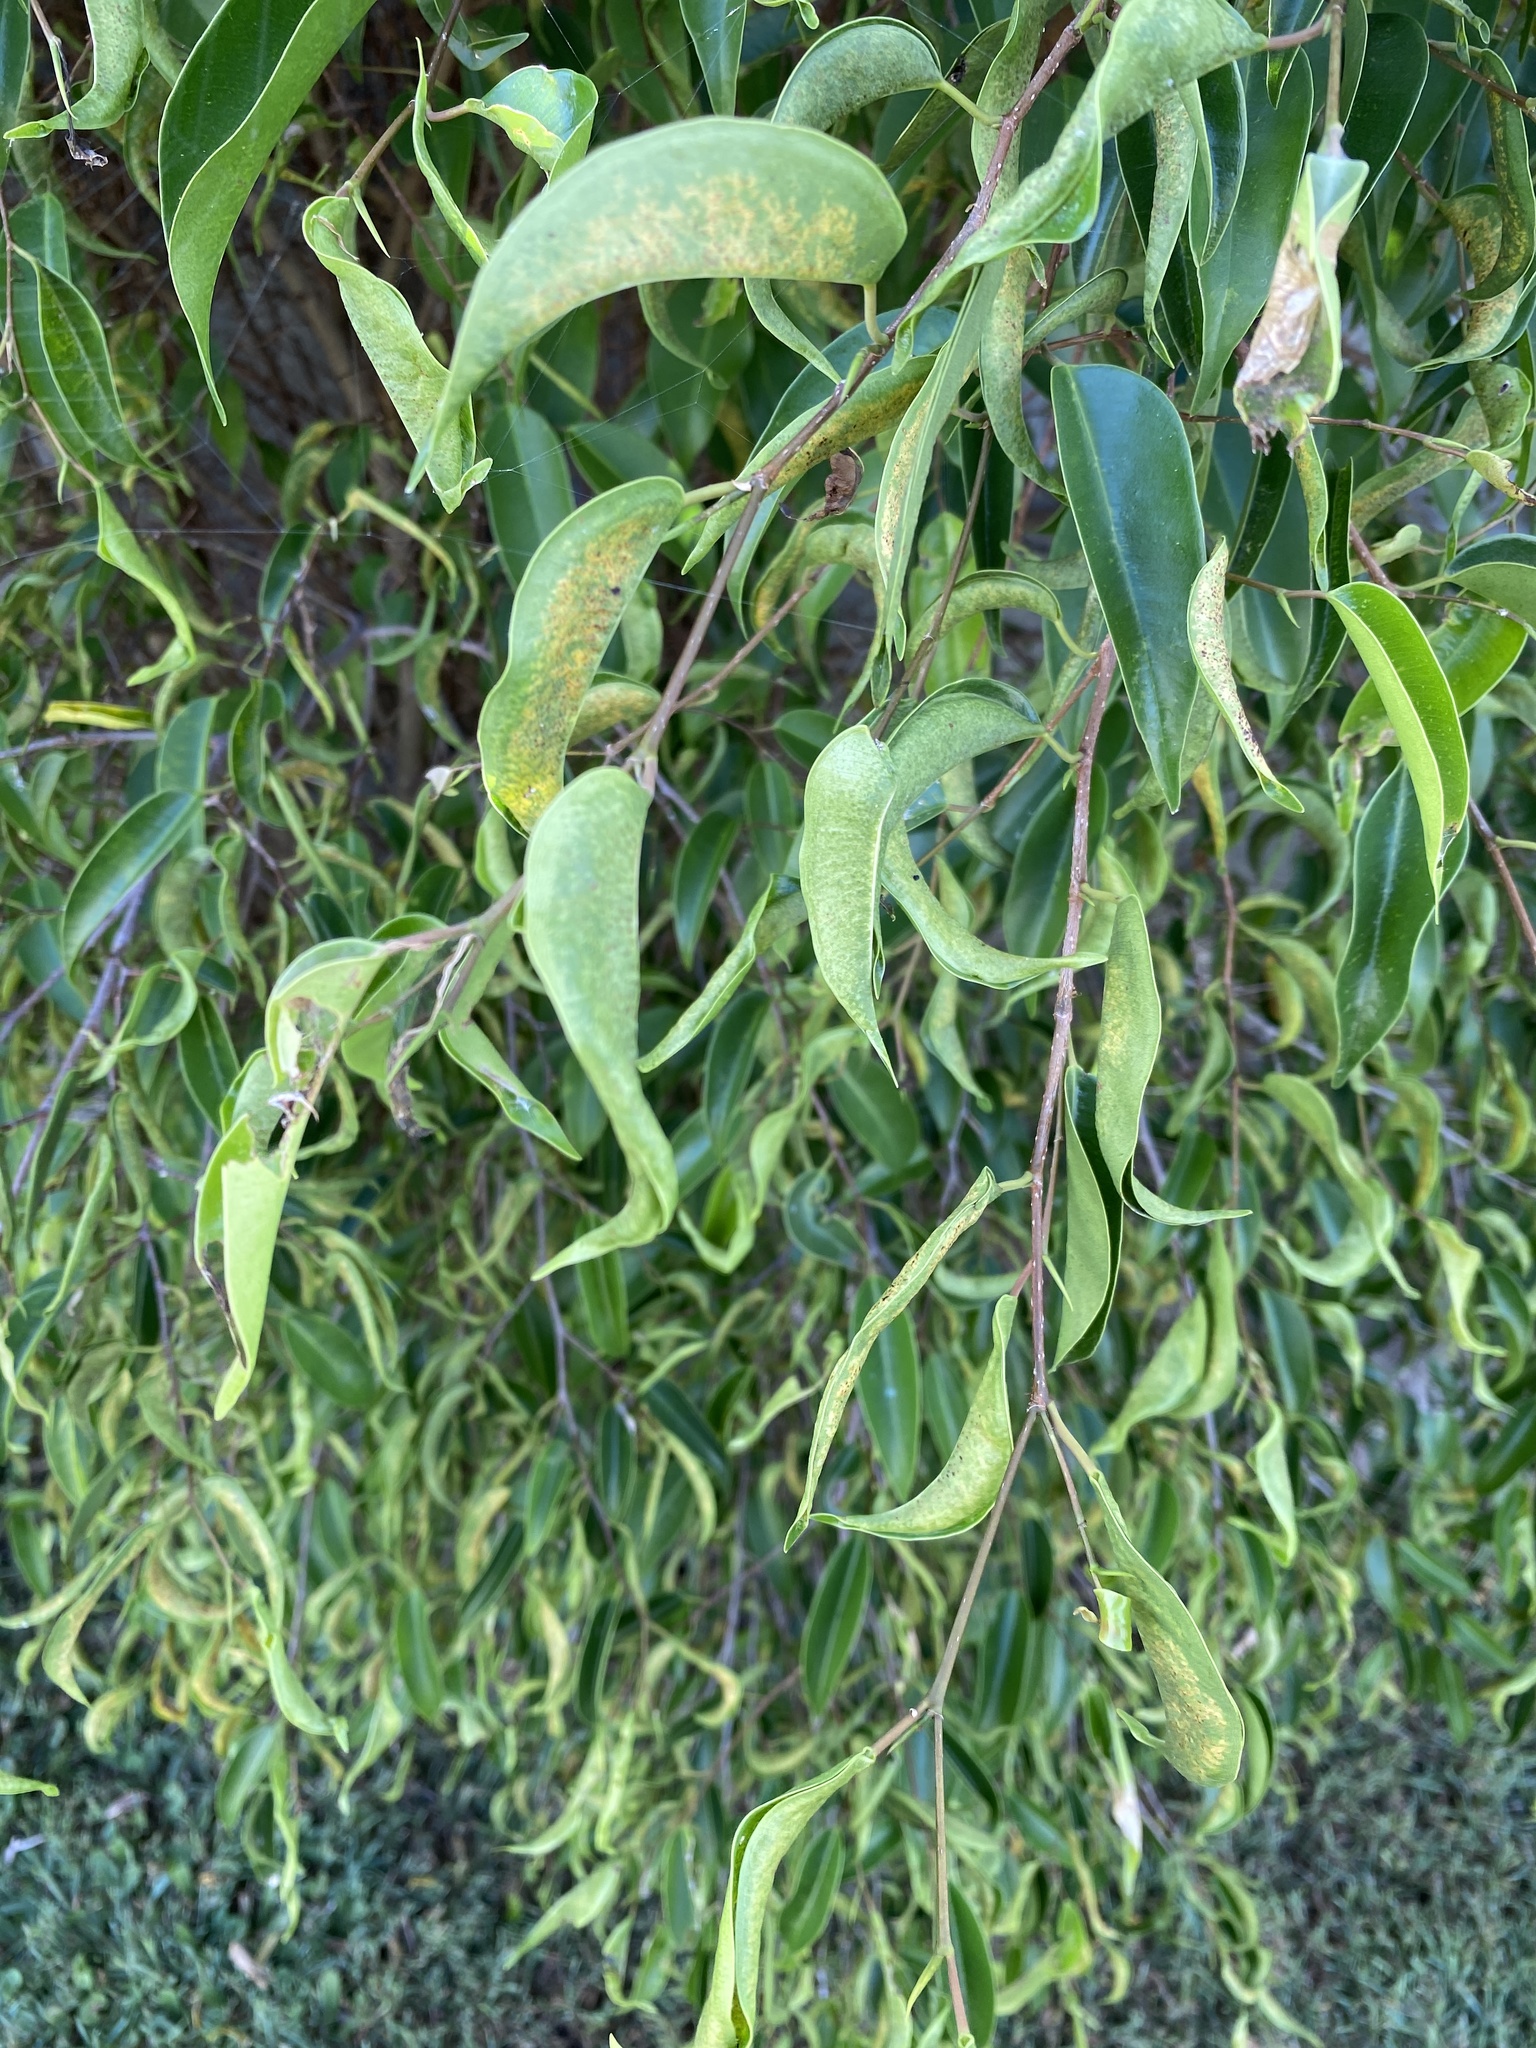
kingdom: Animalia
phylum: Arthropoda
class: Insecta
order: Thysanoptera
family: Phlaeothripidae
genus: Gynaikothrips
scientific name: Gynaikothrips uzeli
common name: Leaf-gall thrips
